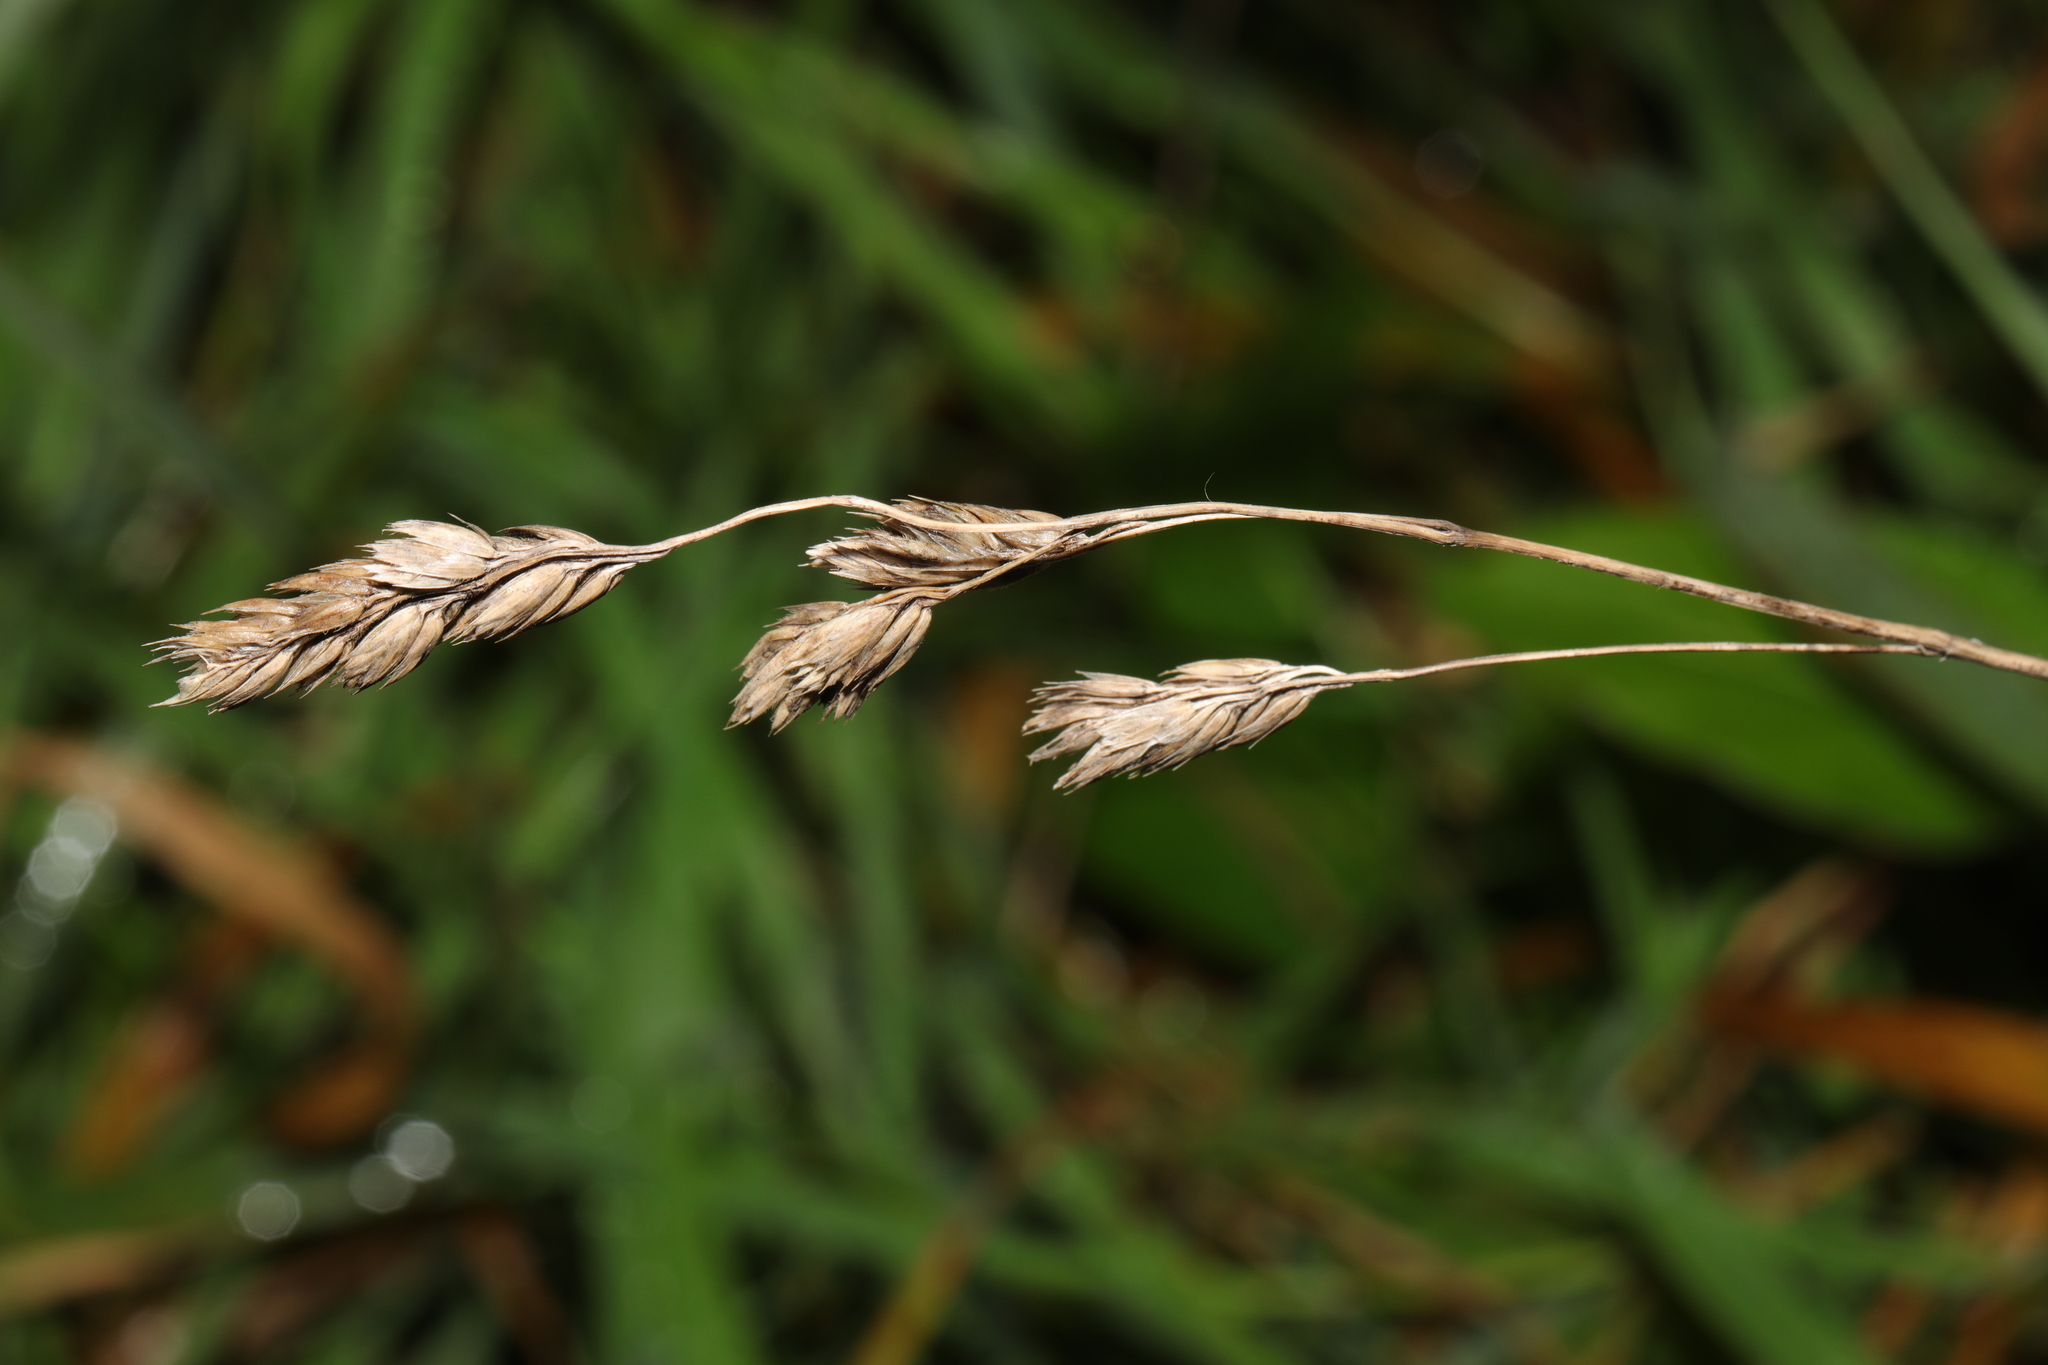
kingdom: Plantae
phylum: Tracheophyta
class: Liliopsida
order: Poales
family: Poaceae
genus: Dactylis
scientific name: Dactylis glomerata
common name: Orchardgrass
